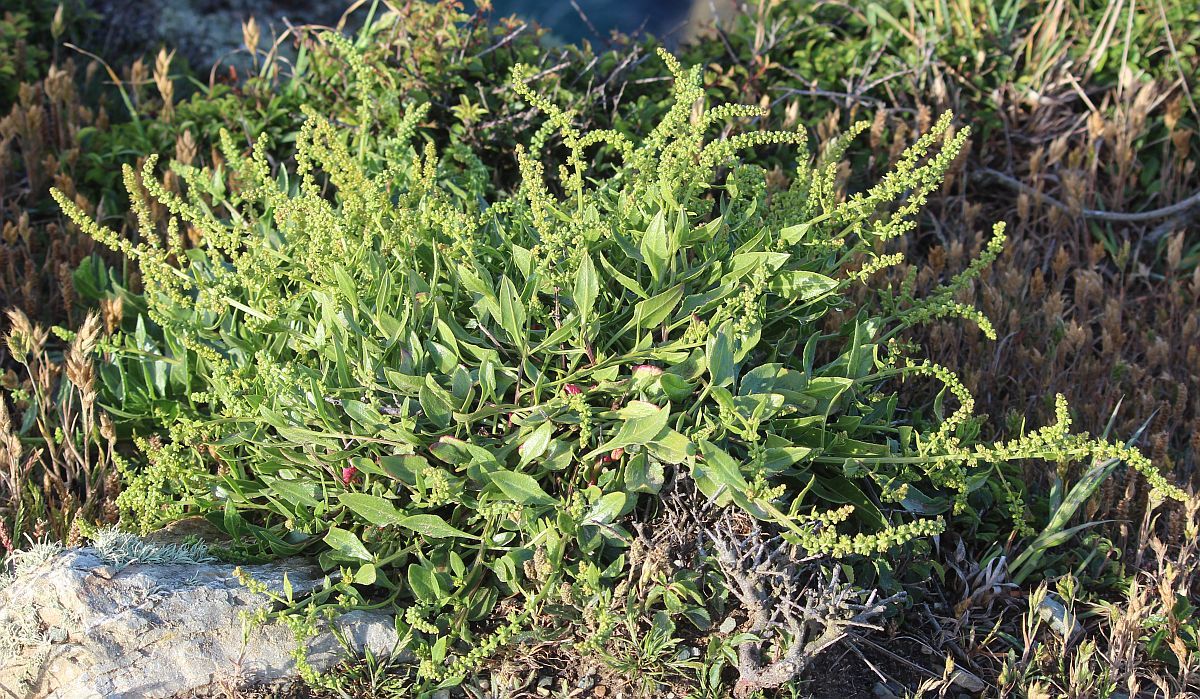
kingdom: Plantae
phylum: Tracheophyta
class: Magnoliopsida
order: Caryophyllales
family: Amaranthaceae
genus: Beta
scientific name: Beta vulgaris
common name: Beet
